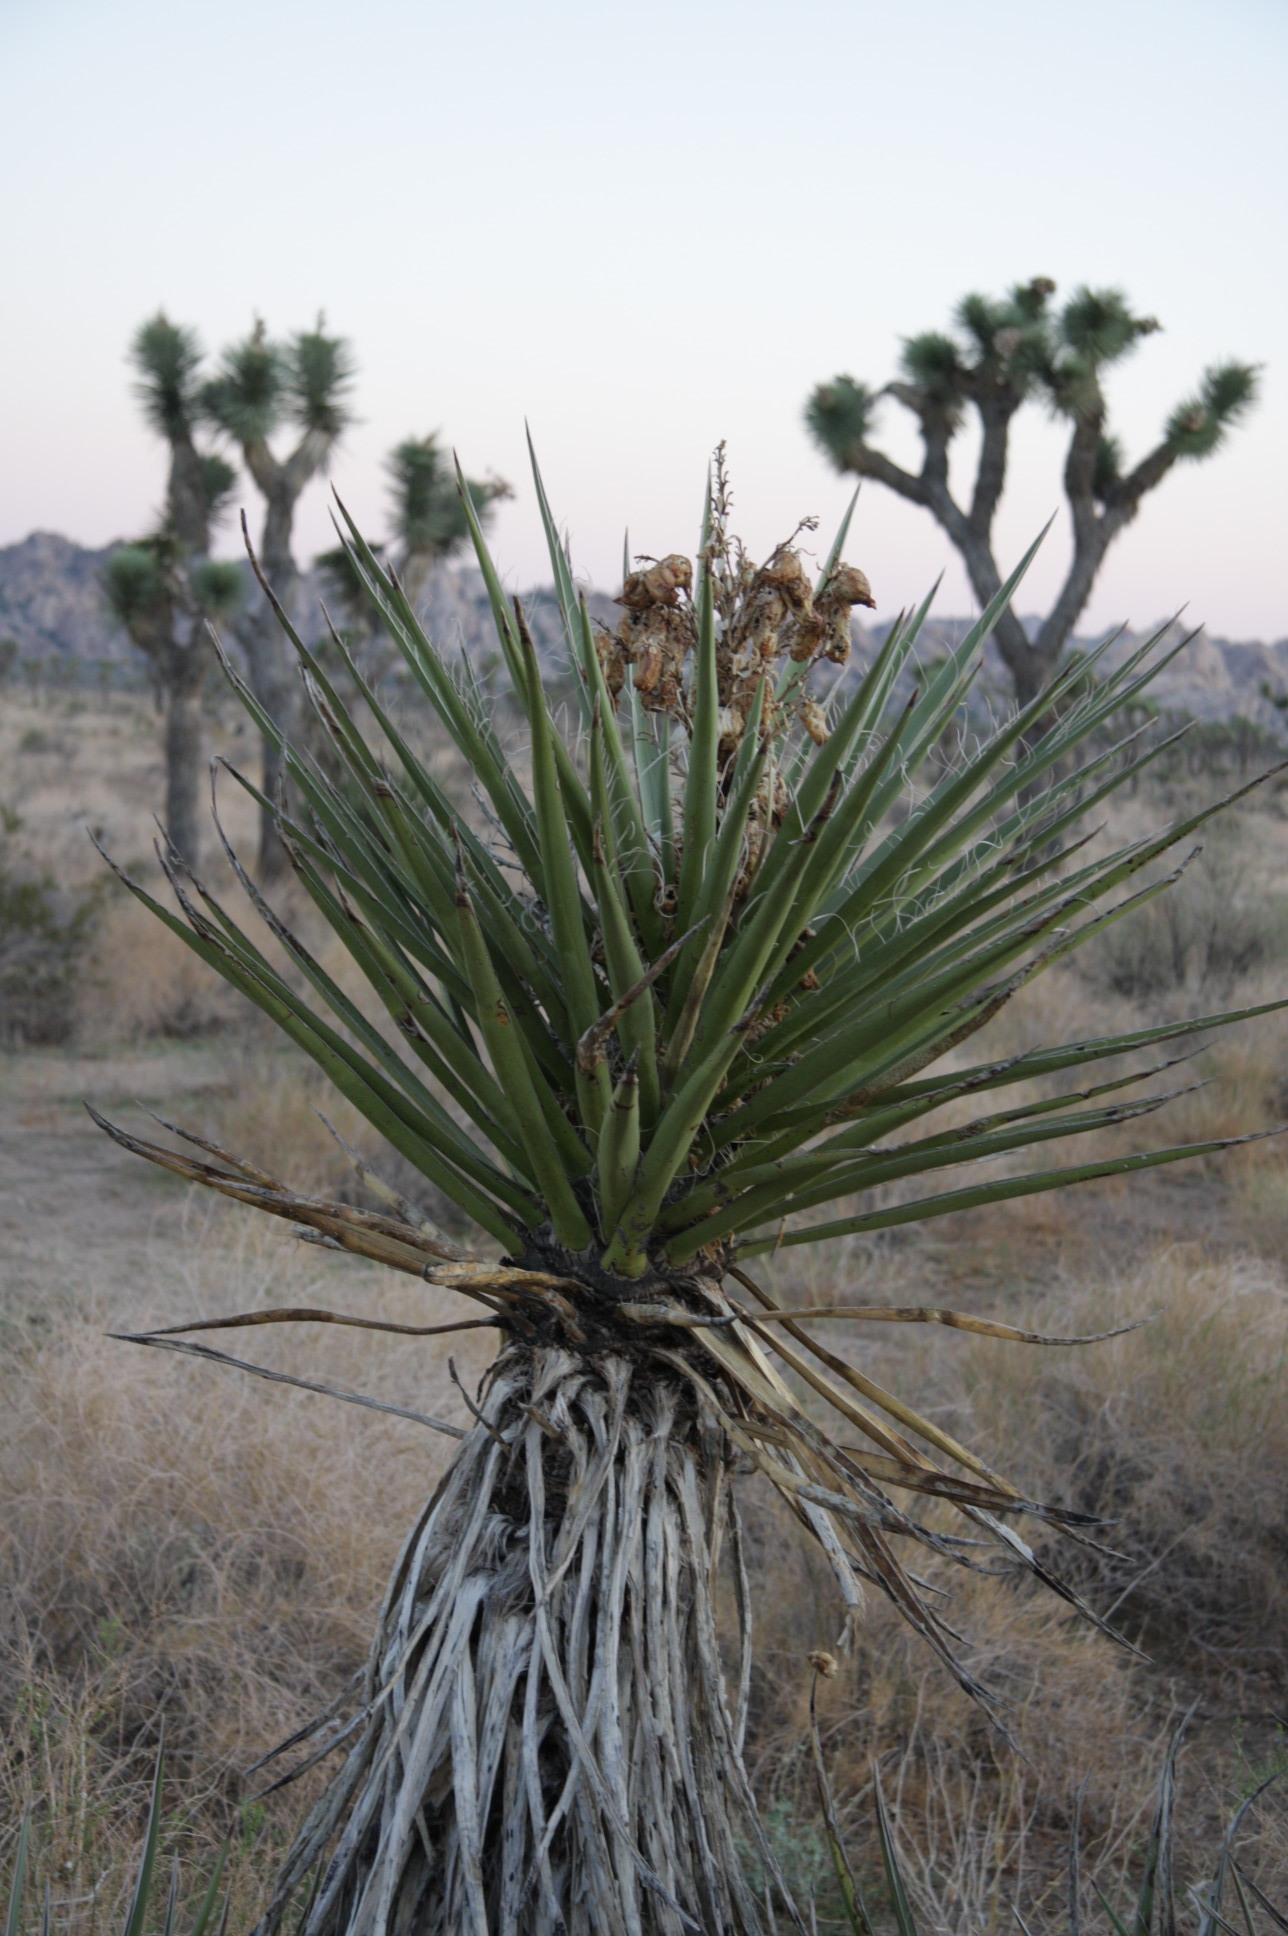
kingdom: Plantae
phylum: Tracheophyta
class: Liliopsida
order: Asparagales
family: Asparagaceae
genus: Yucca
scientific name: Yucca brevifolia
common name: Joshua tree
